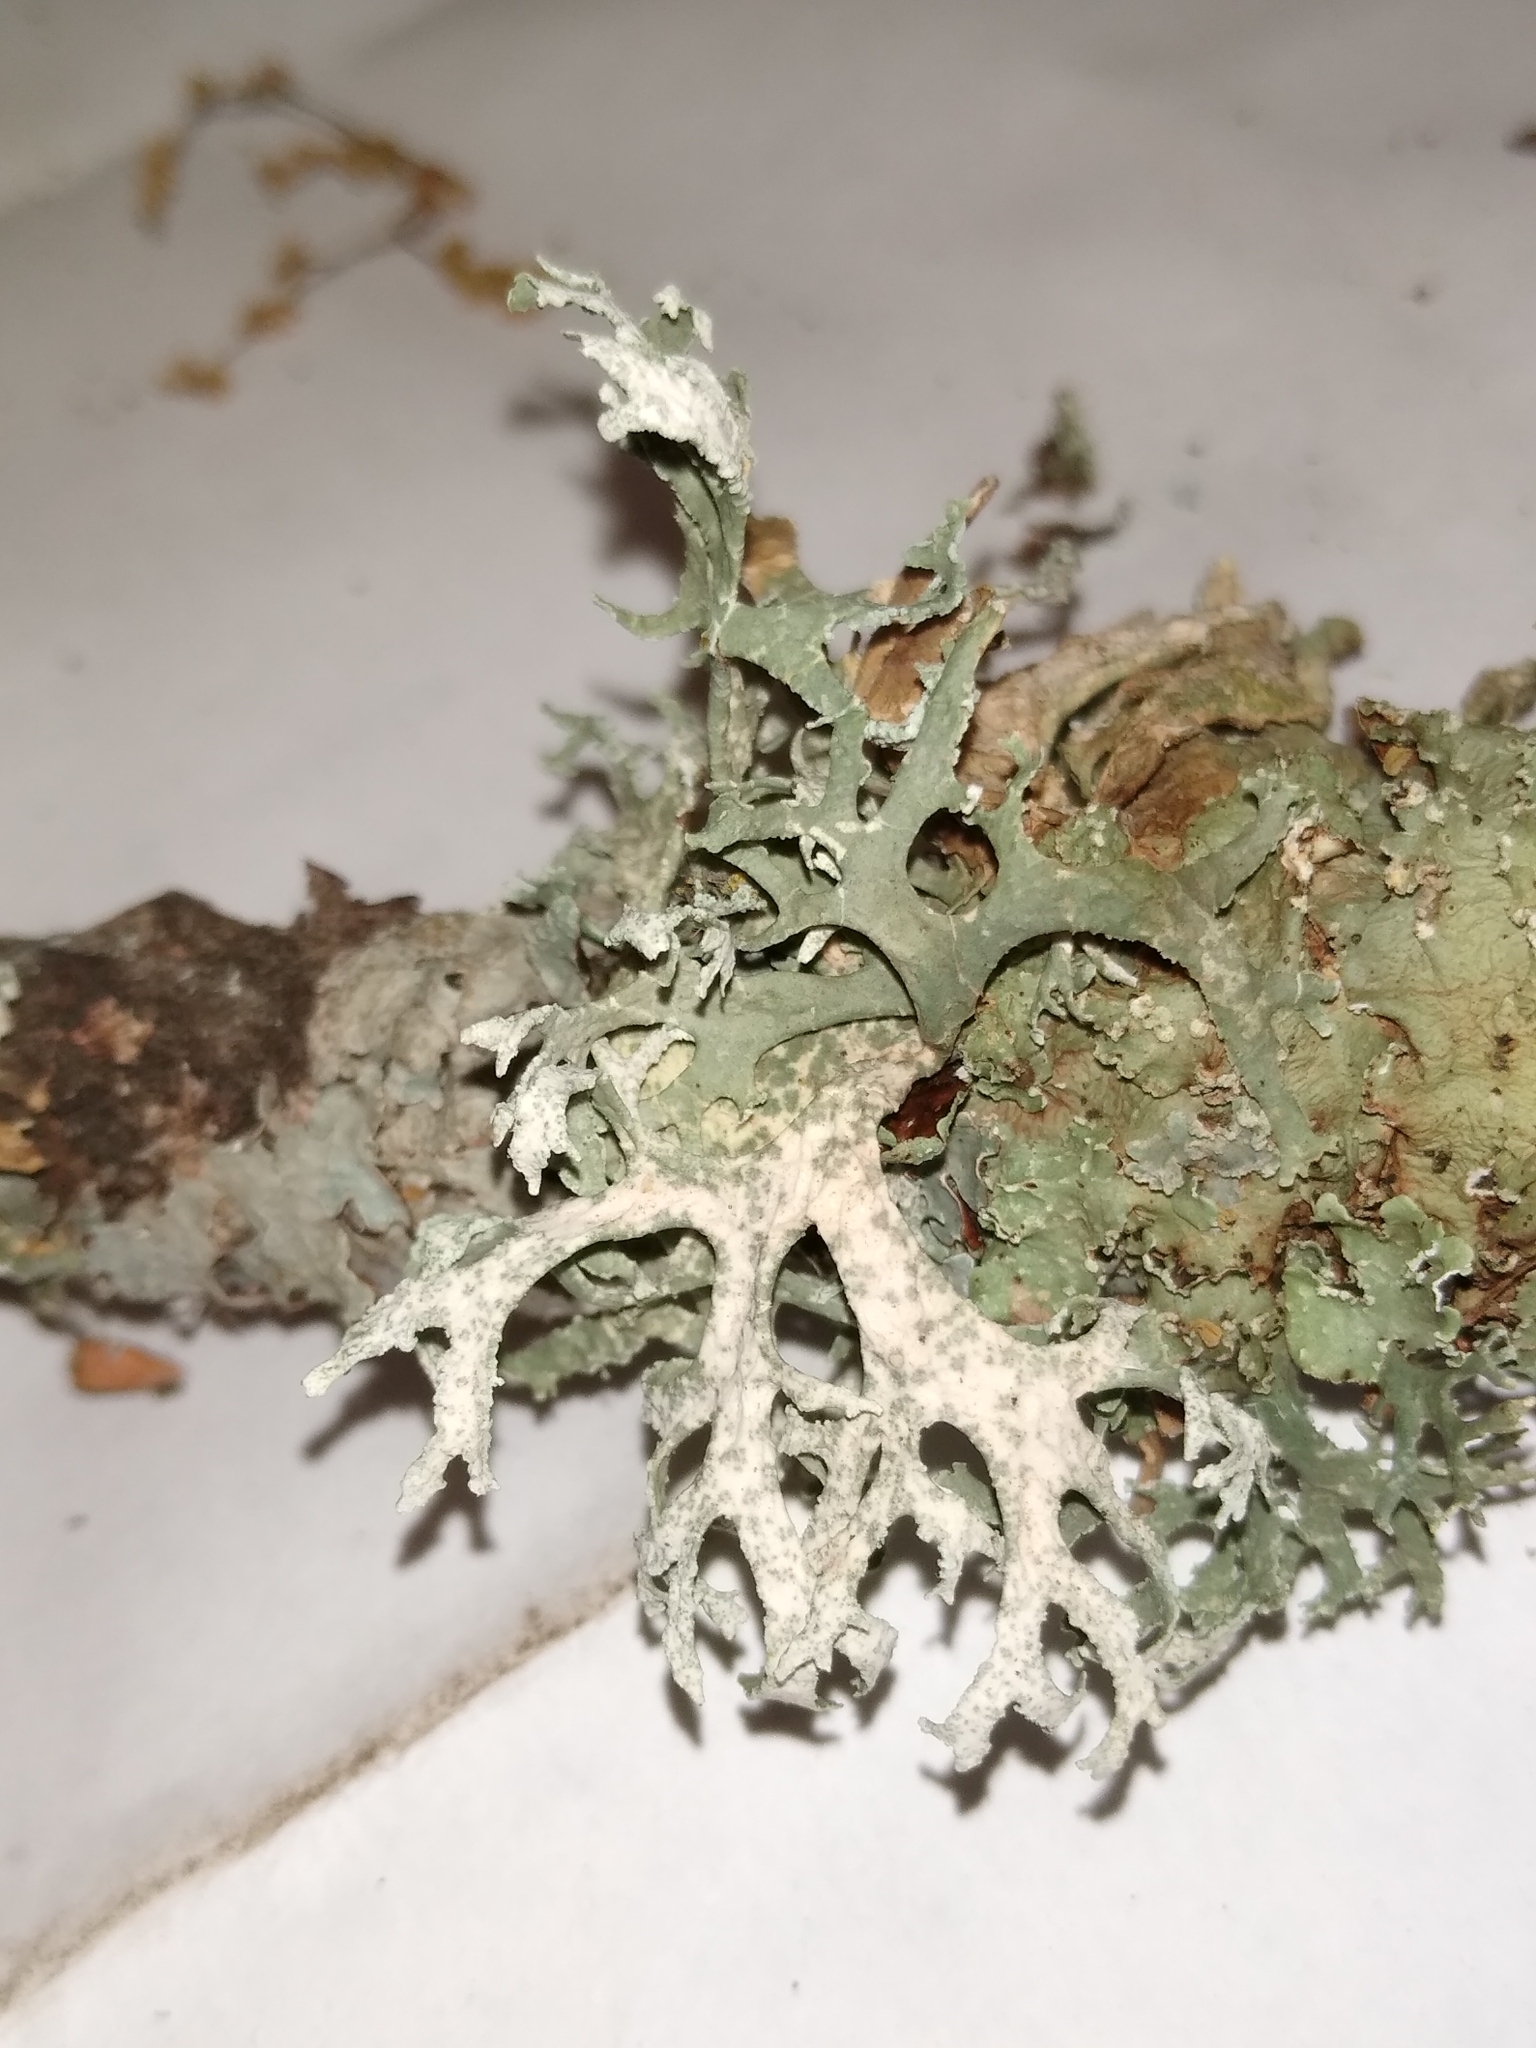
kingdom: Fungi
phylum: Ascomycota
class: Lecanoromycetes
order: Lecanorales
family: Parmeliaceae
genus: Evernia
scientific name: Evernia prunastri
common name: Oak moss
